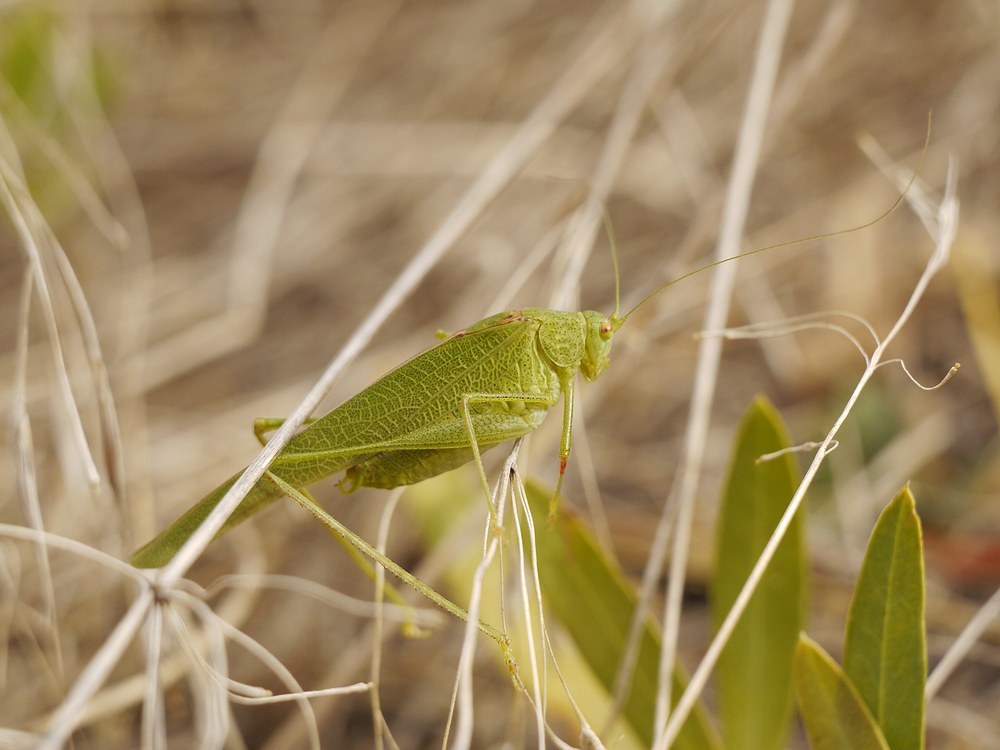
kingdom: Animalia
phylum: Arthropoda
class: Insecta
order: Orthoptera
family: Tettigoniidae
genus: Phaneroptera
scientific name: Phaneroptera nana
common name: Southern sickle bush-cricket
